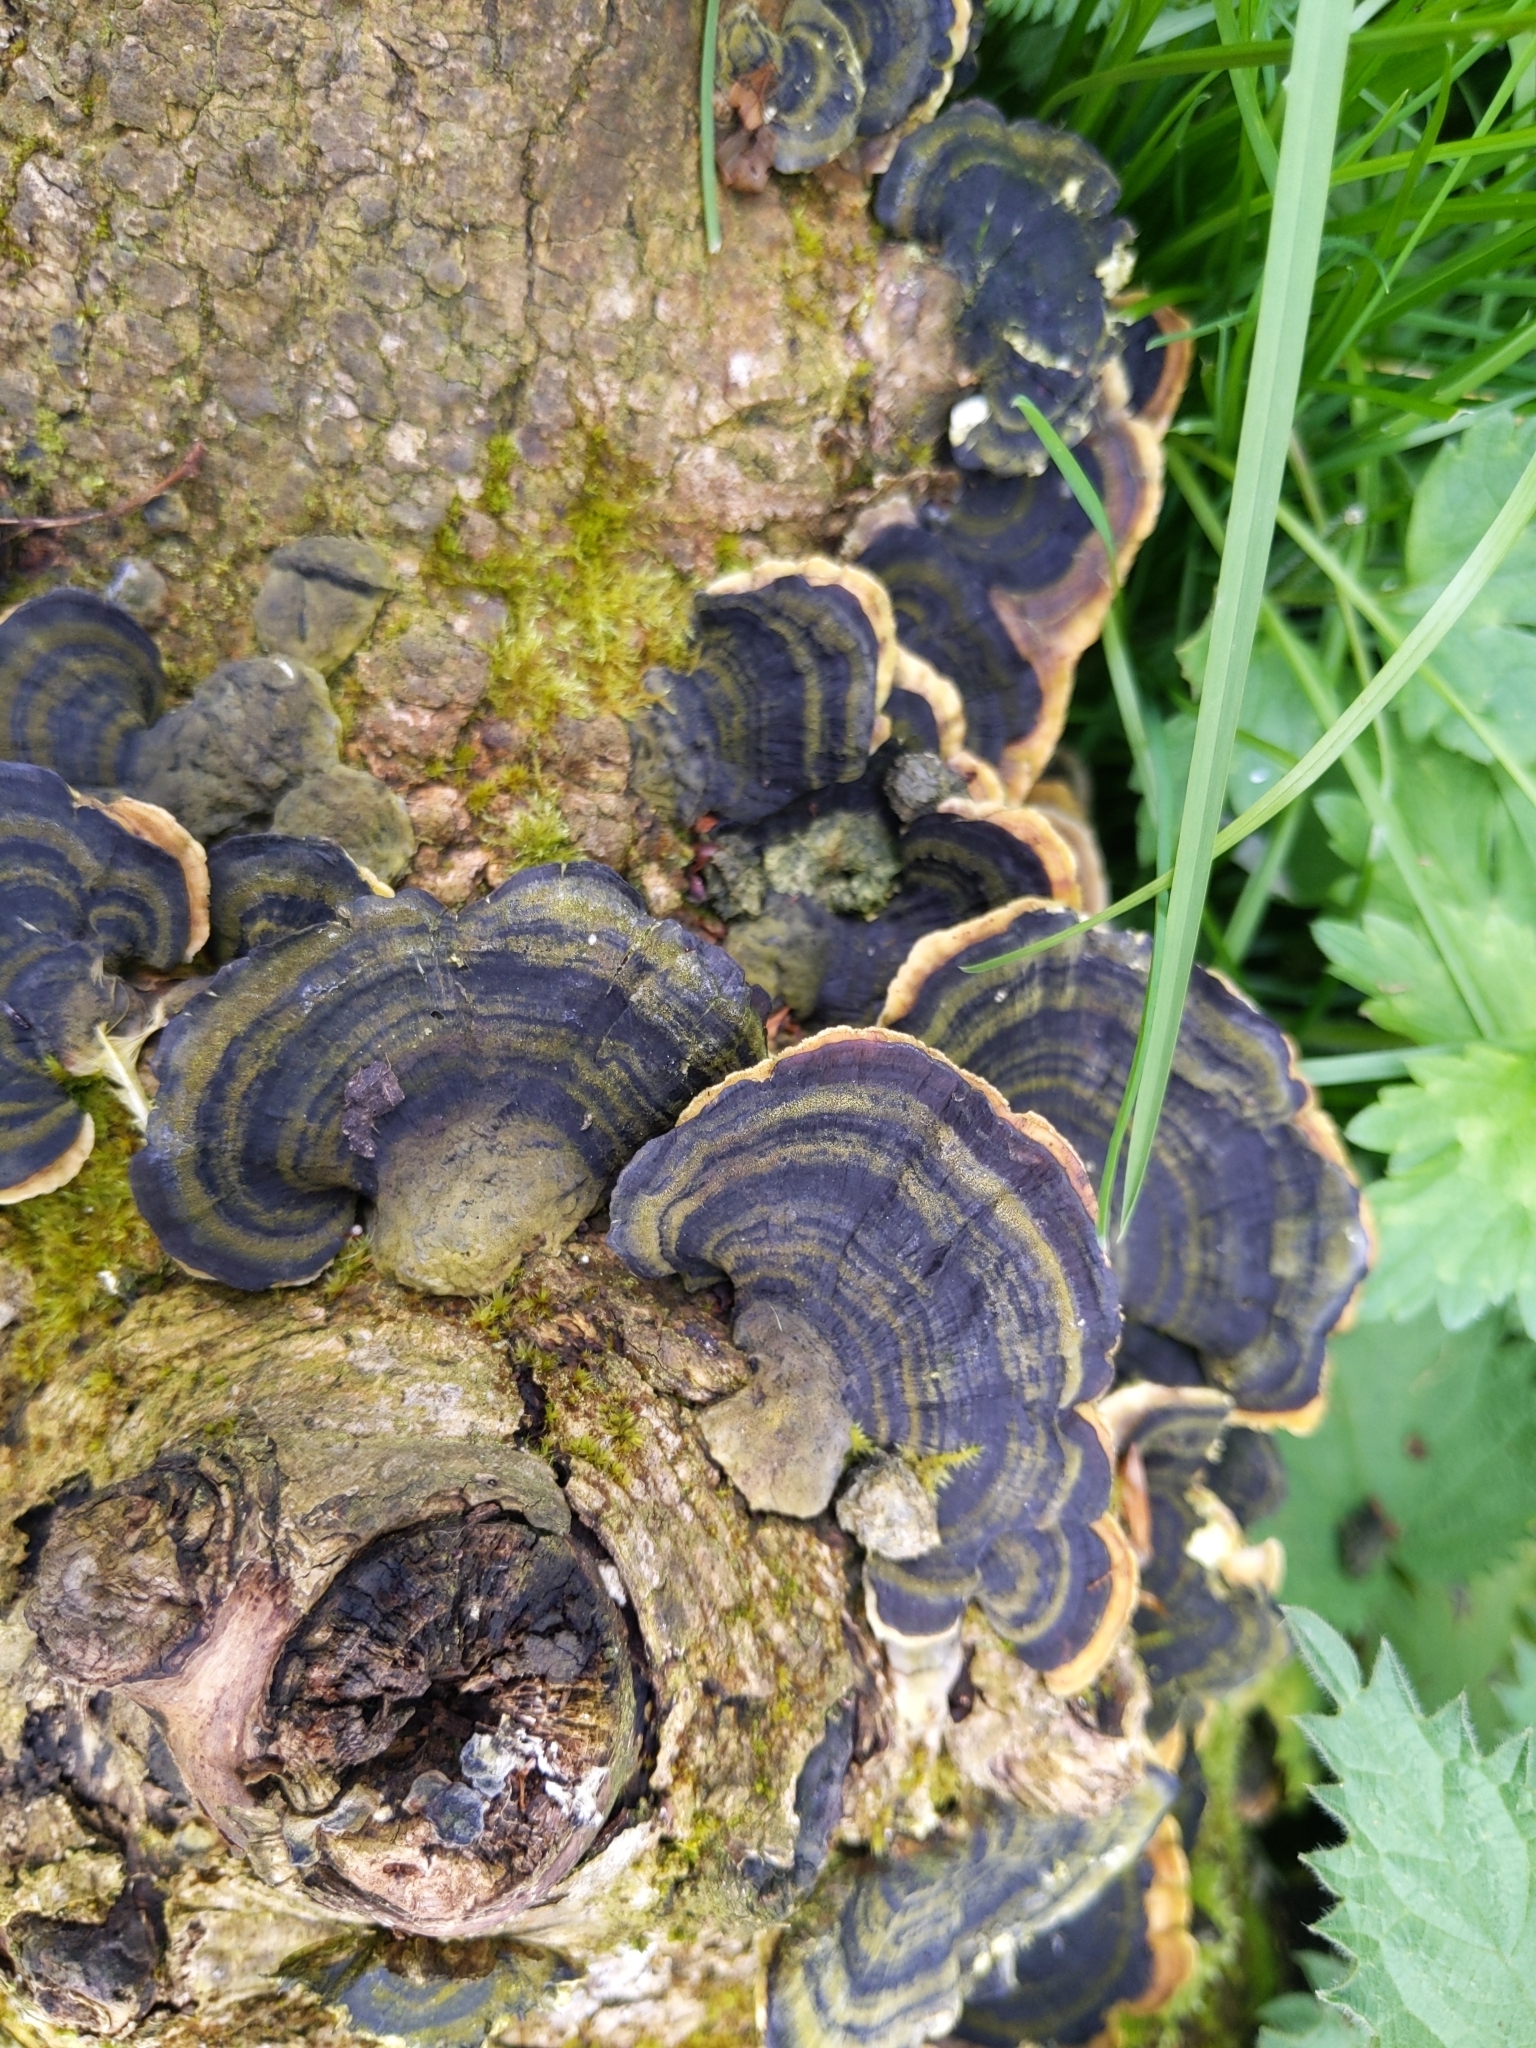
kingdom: Fungi
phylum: Basidiomycota
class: Agaricomycetes
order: Polyporales
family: Polyporaceae
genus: Trametes
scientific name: Trametes versicolor
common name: Turkeytail
